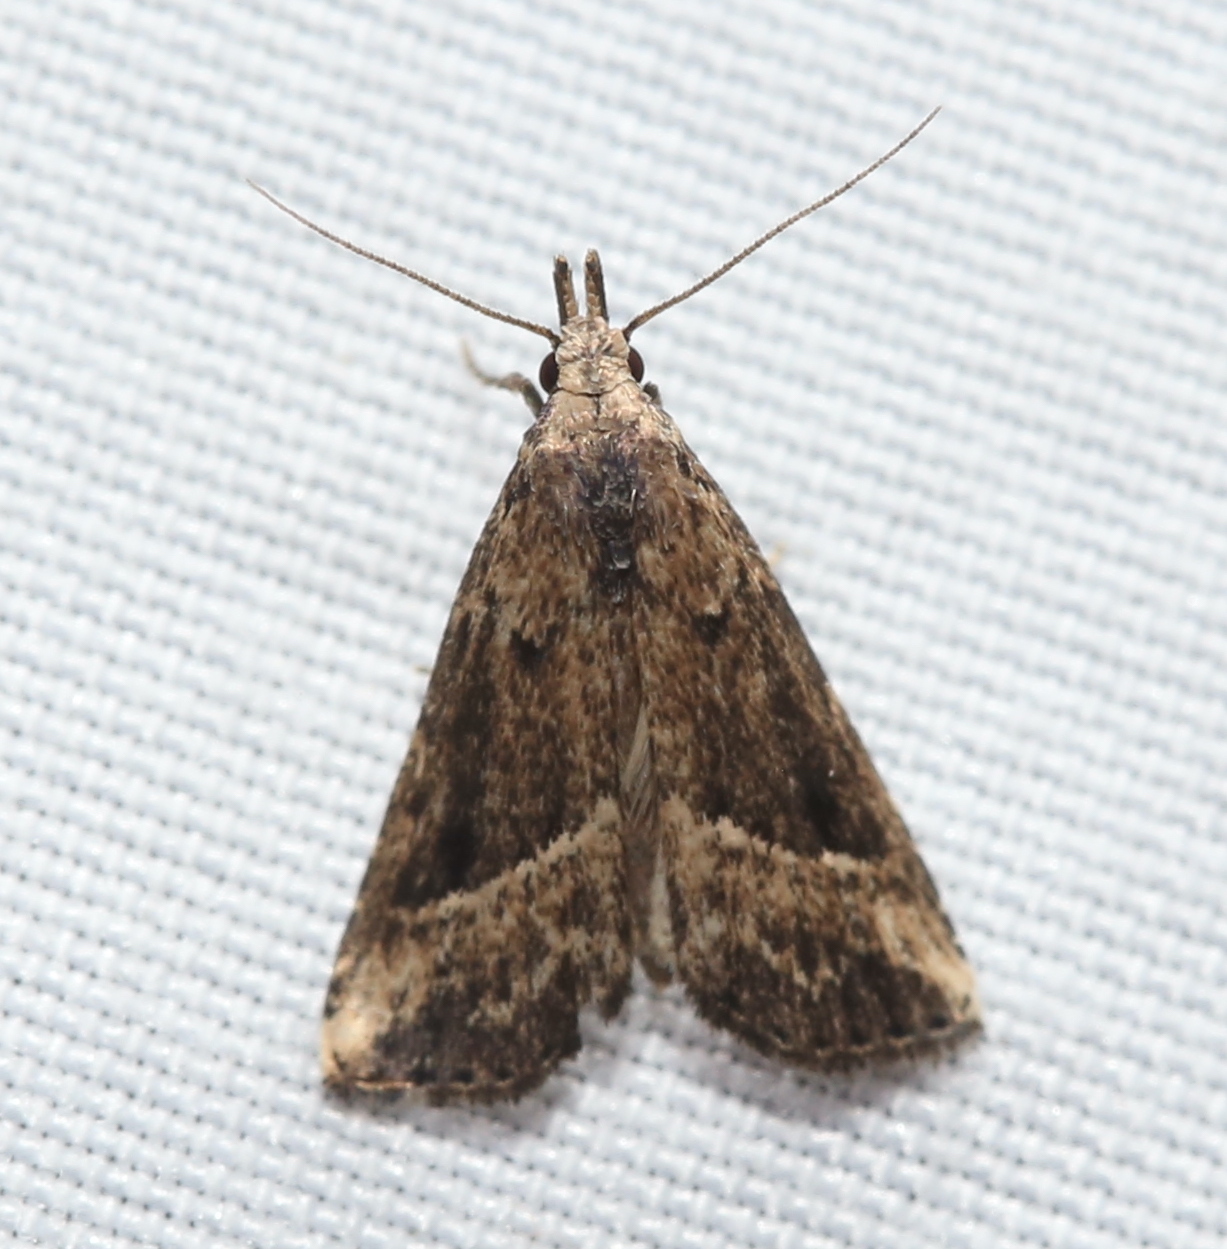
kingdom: Animalia
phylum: Arthropoda
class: Insecta
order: Lepidoptera
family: Erebidae
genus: Schrankia
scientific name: Schrankia
